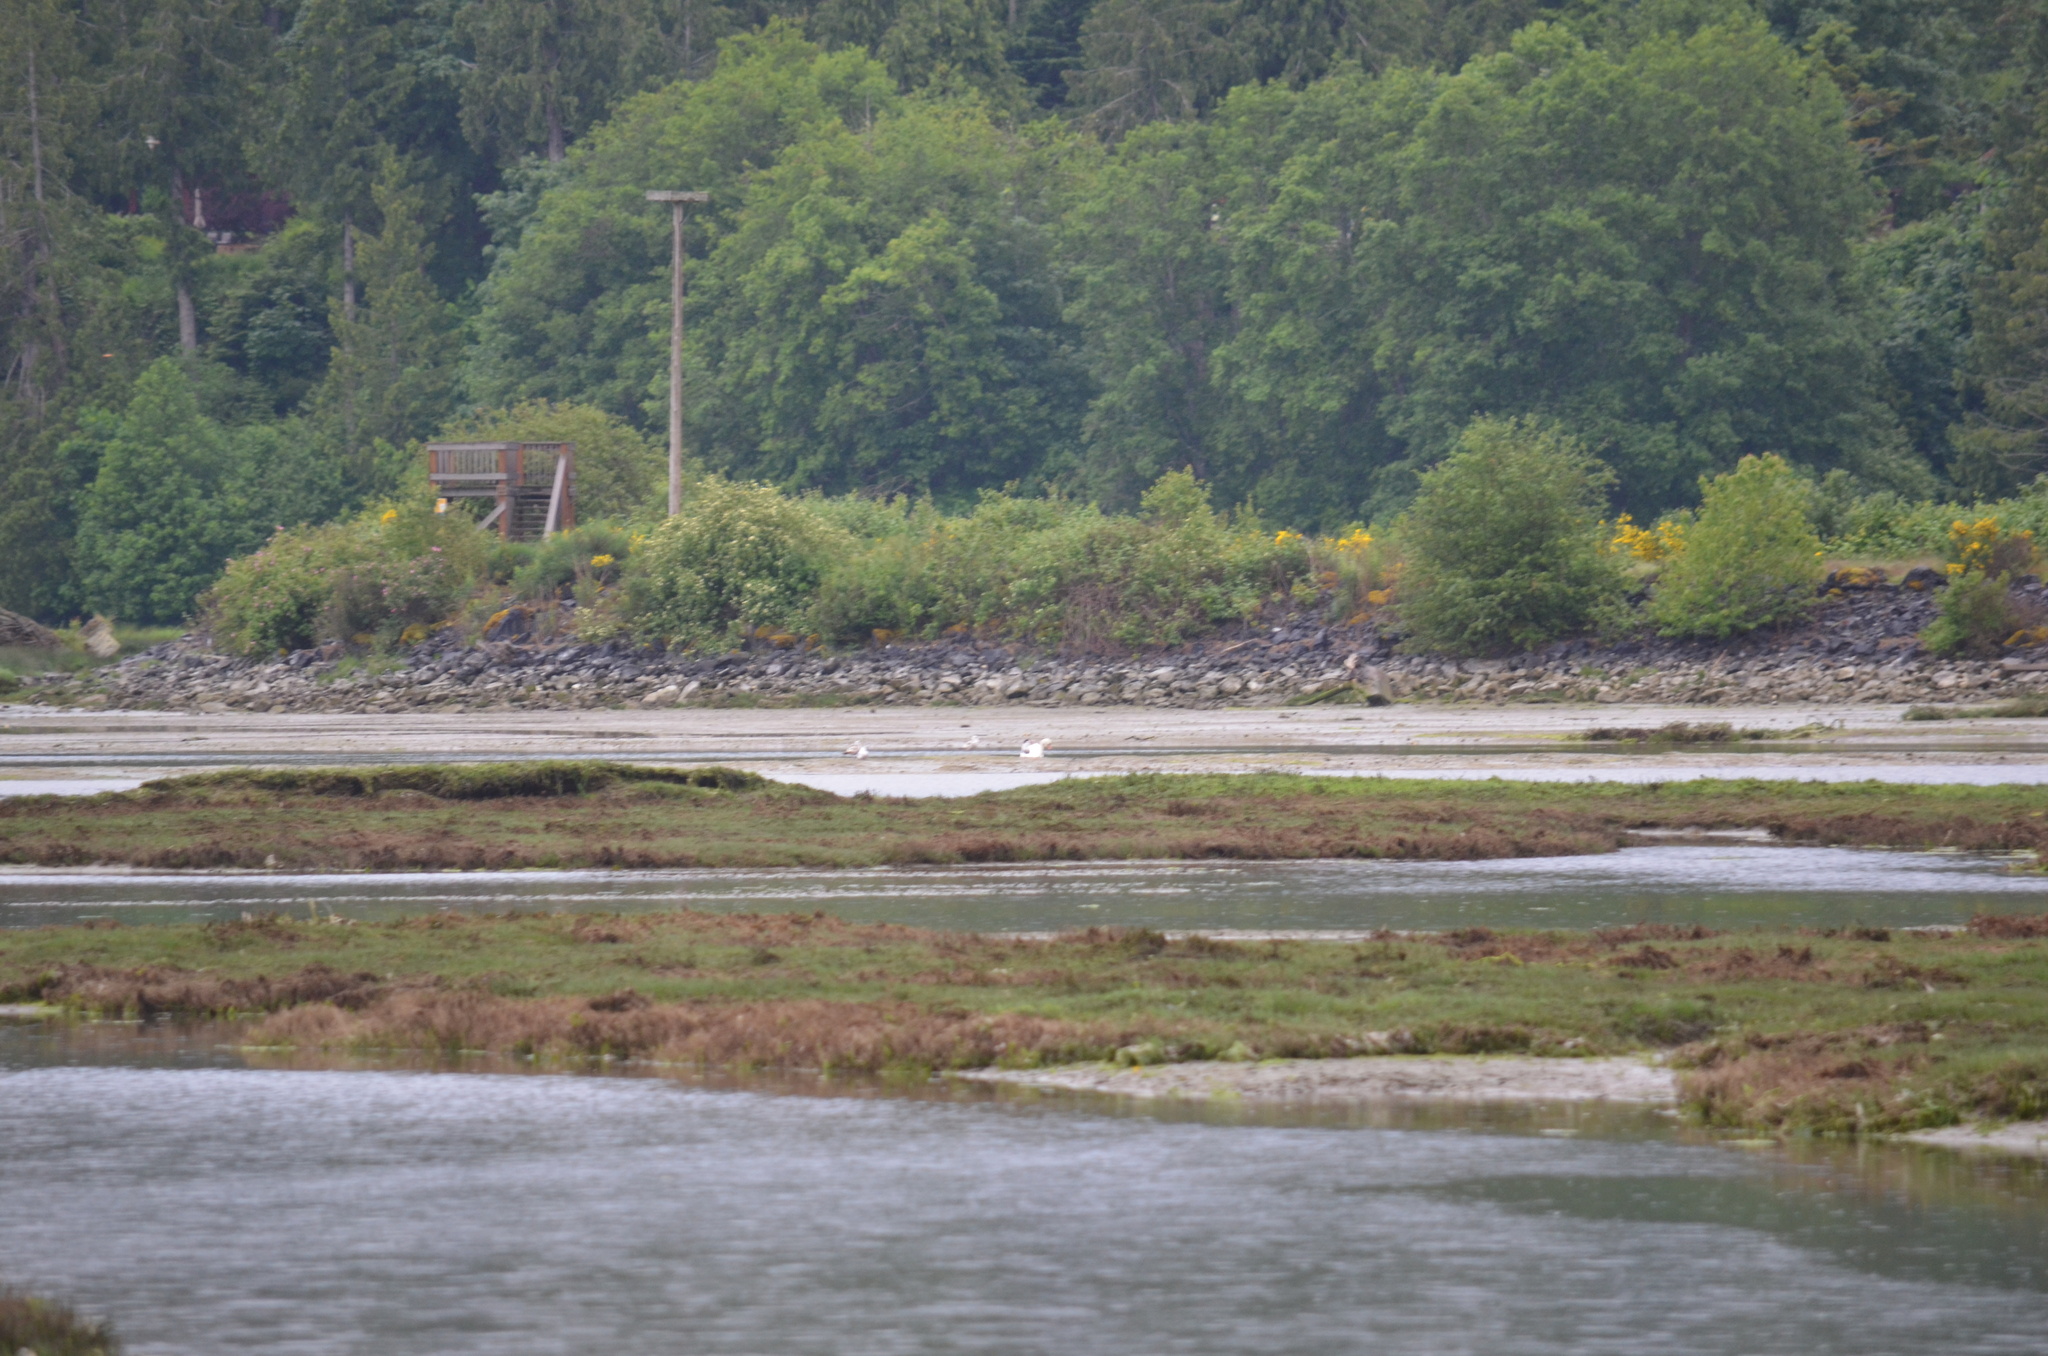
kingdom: Animalia
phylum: Chordata
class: Aves
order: Anseriformes
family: Anatidae
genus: Cygnus
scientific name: Cygnus olor
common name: Mute swan
